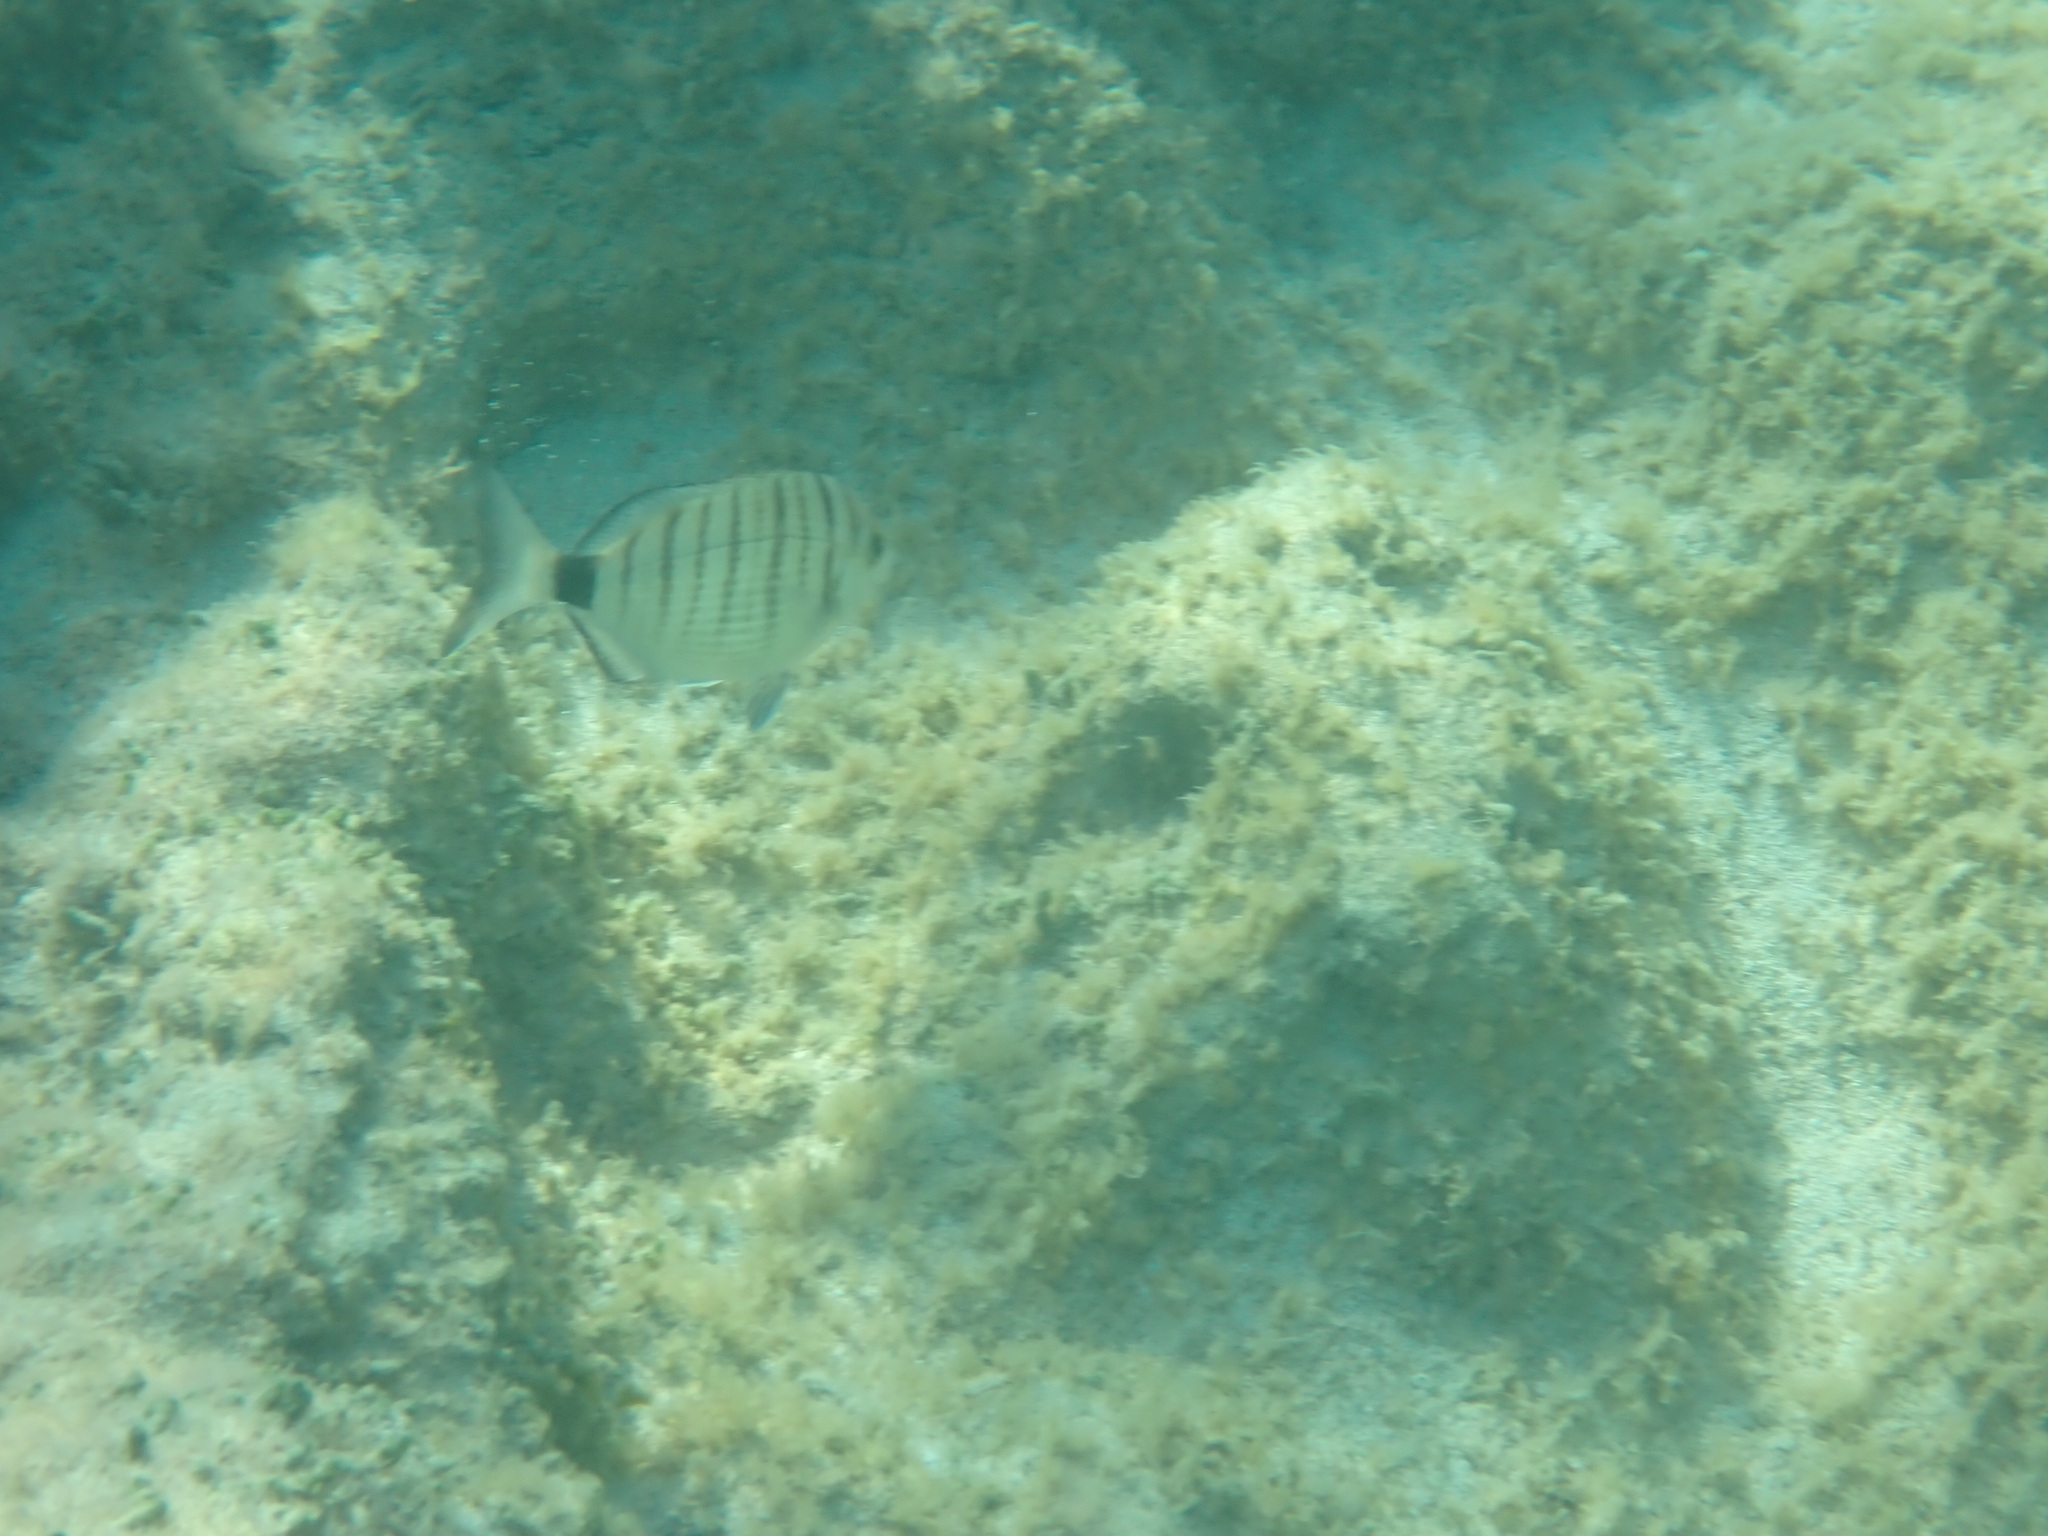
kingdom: Animalia
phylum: Chordata
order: Perciformes
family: Sparidae
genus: Diplodus
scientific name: Diplodus puntazzo
